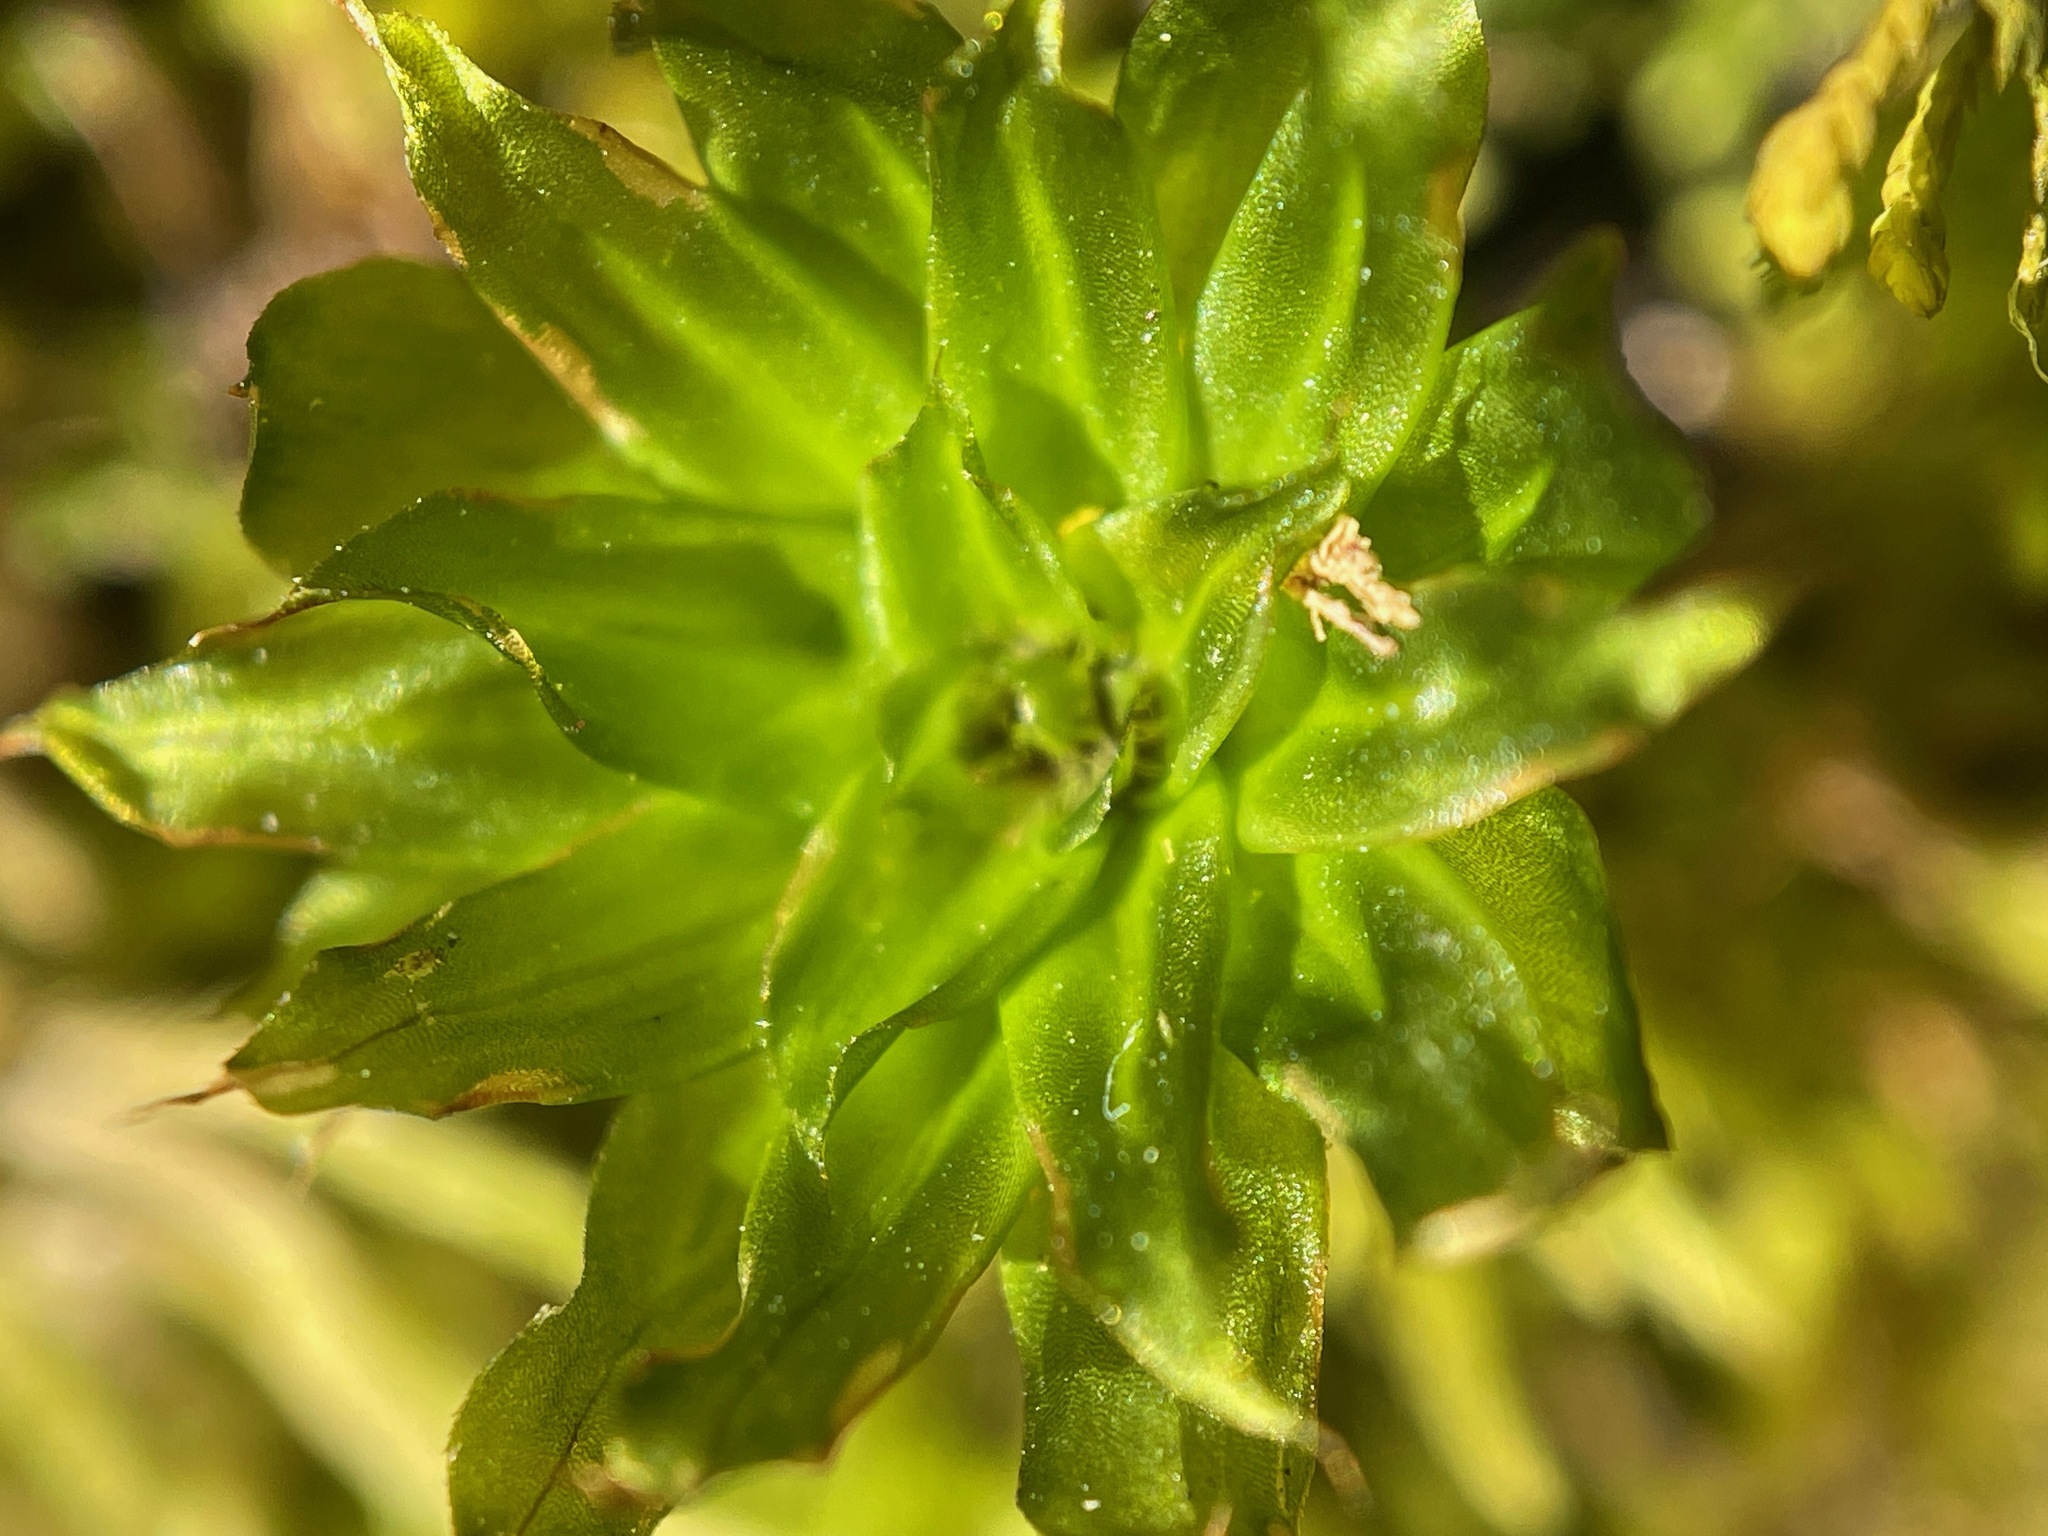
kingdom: Plantae
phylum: Bryophyta
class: Bryopsida
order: Bryales
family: Bryaceae
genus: Rhodobryum
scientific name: Rhodobryum ontariense
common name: Ontario rhodobryum moss
